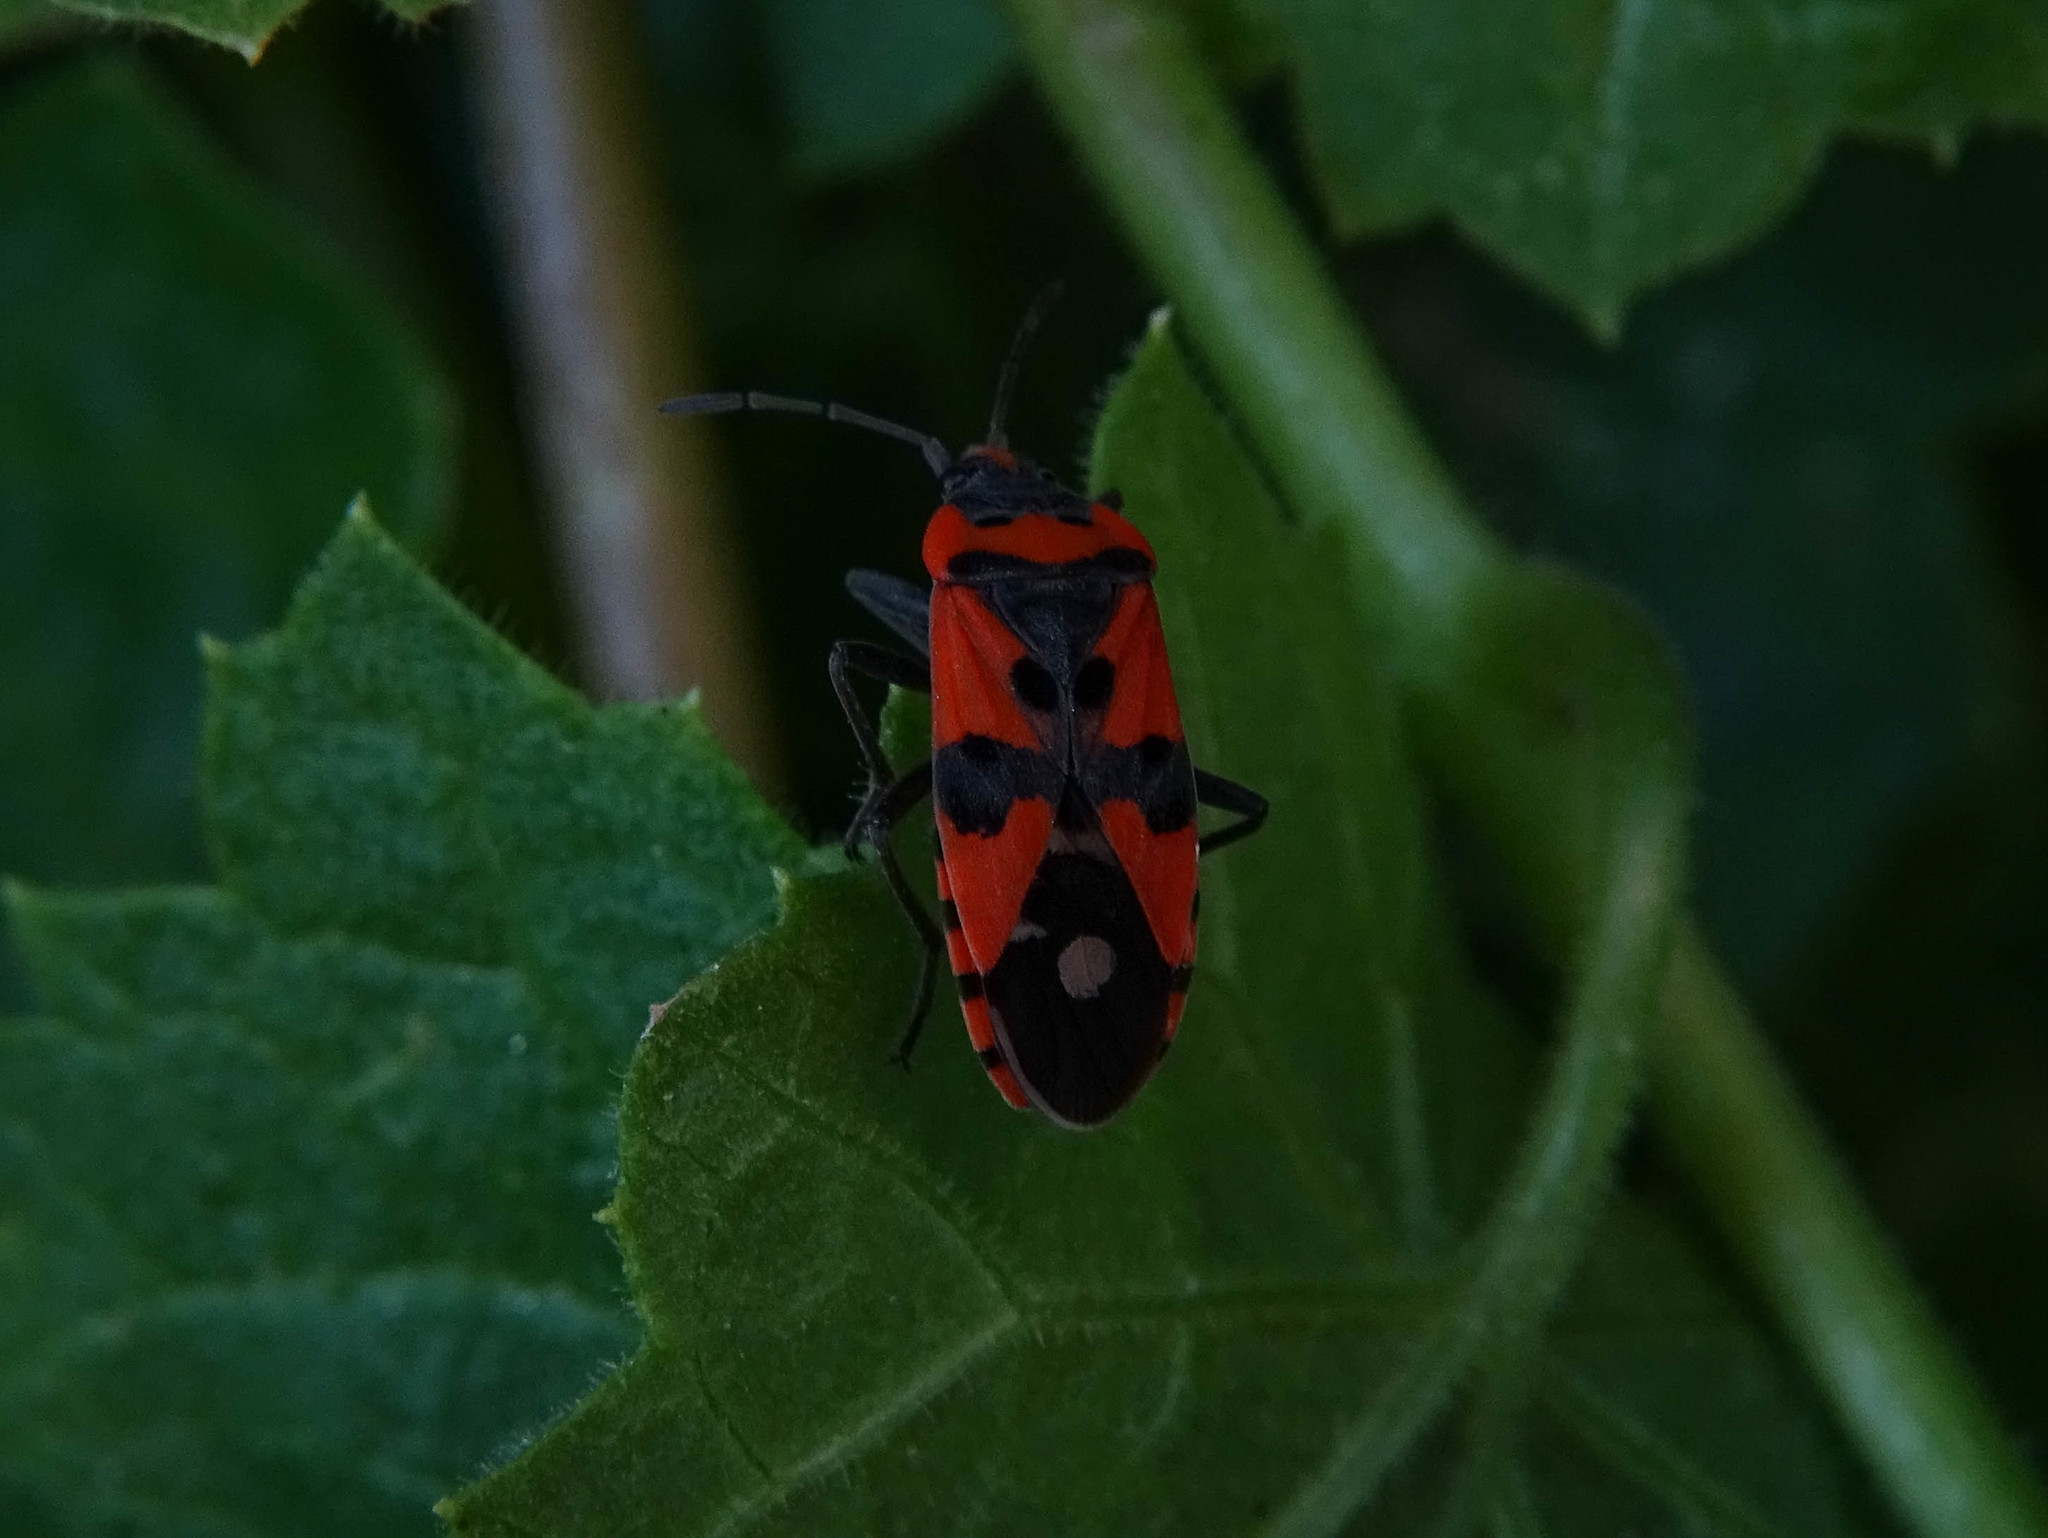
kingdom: Animalia
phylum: Arthropoda
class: Insecta
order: Hemiptera
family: Lygaeidae
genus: Lygaeus
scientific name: Lygaeus equestris
